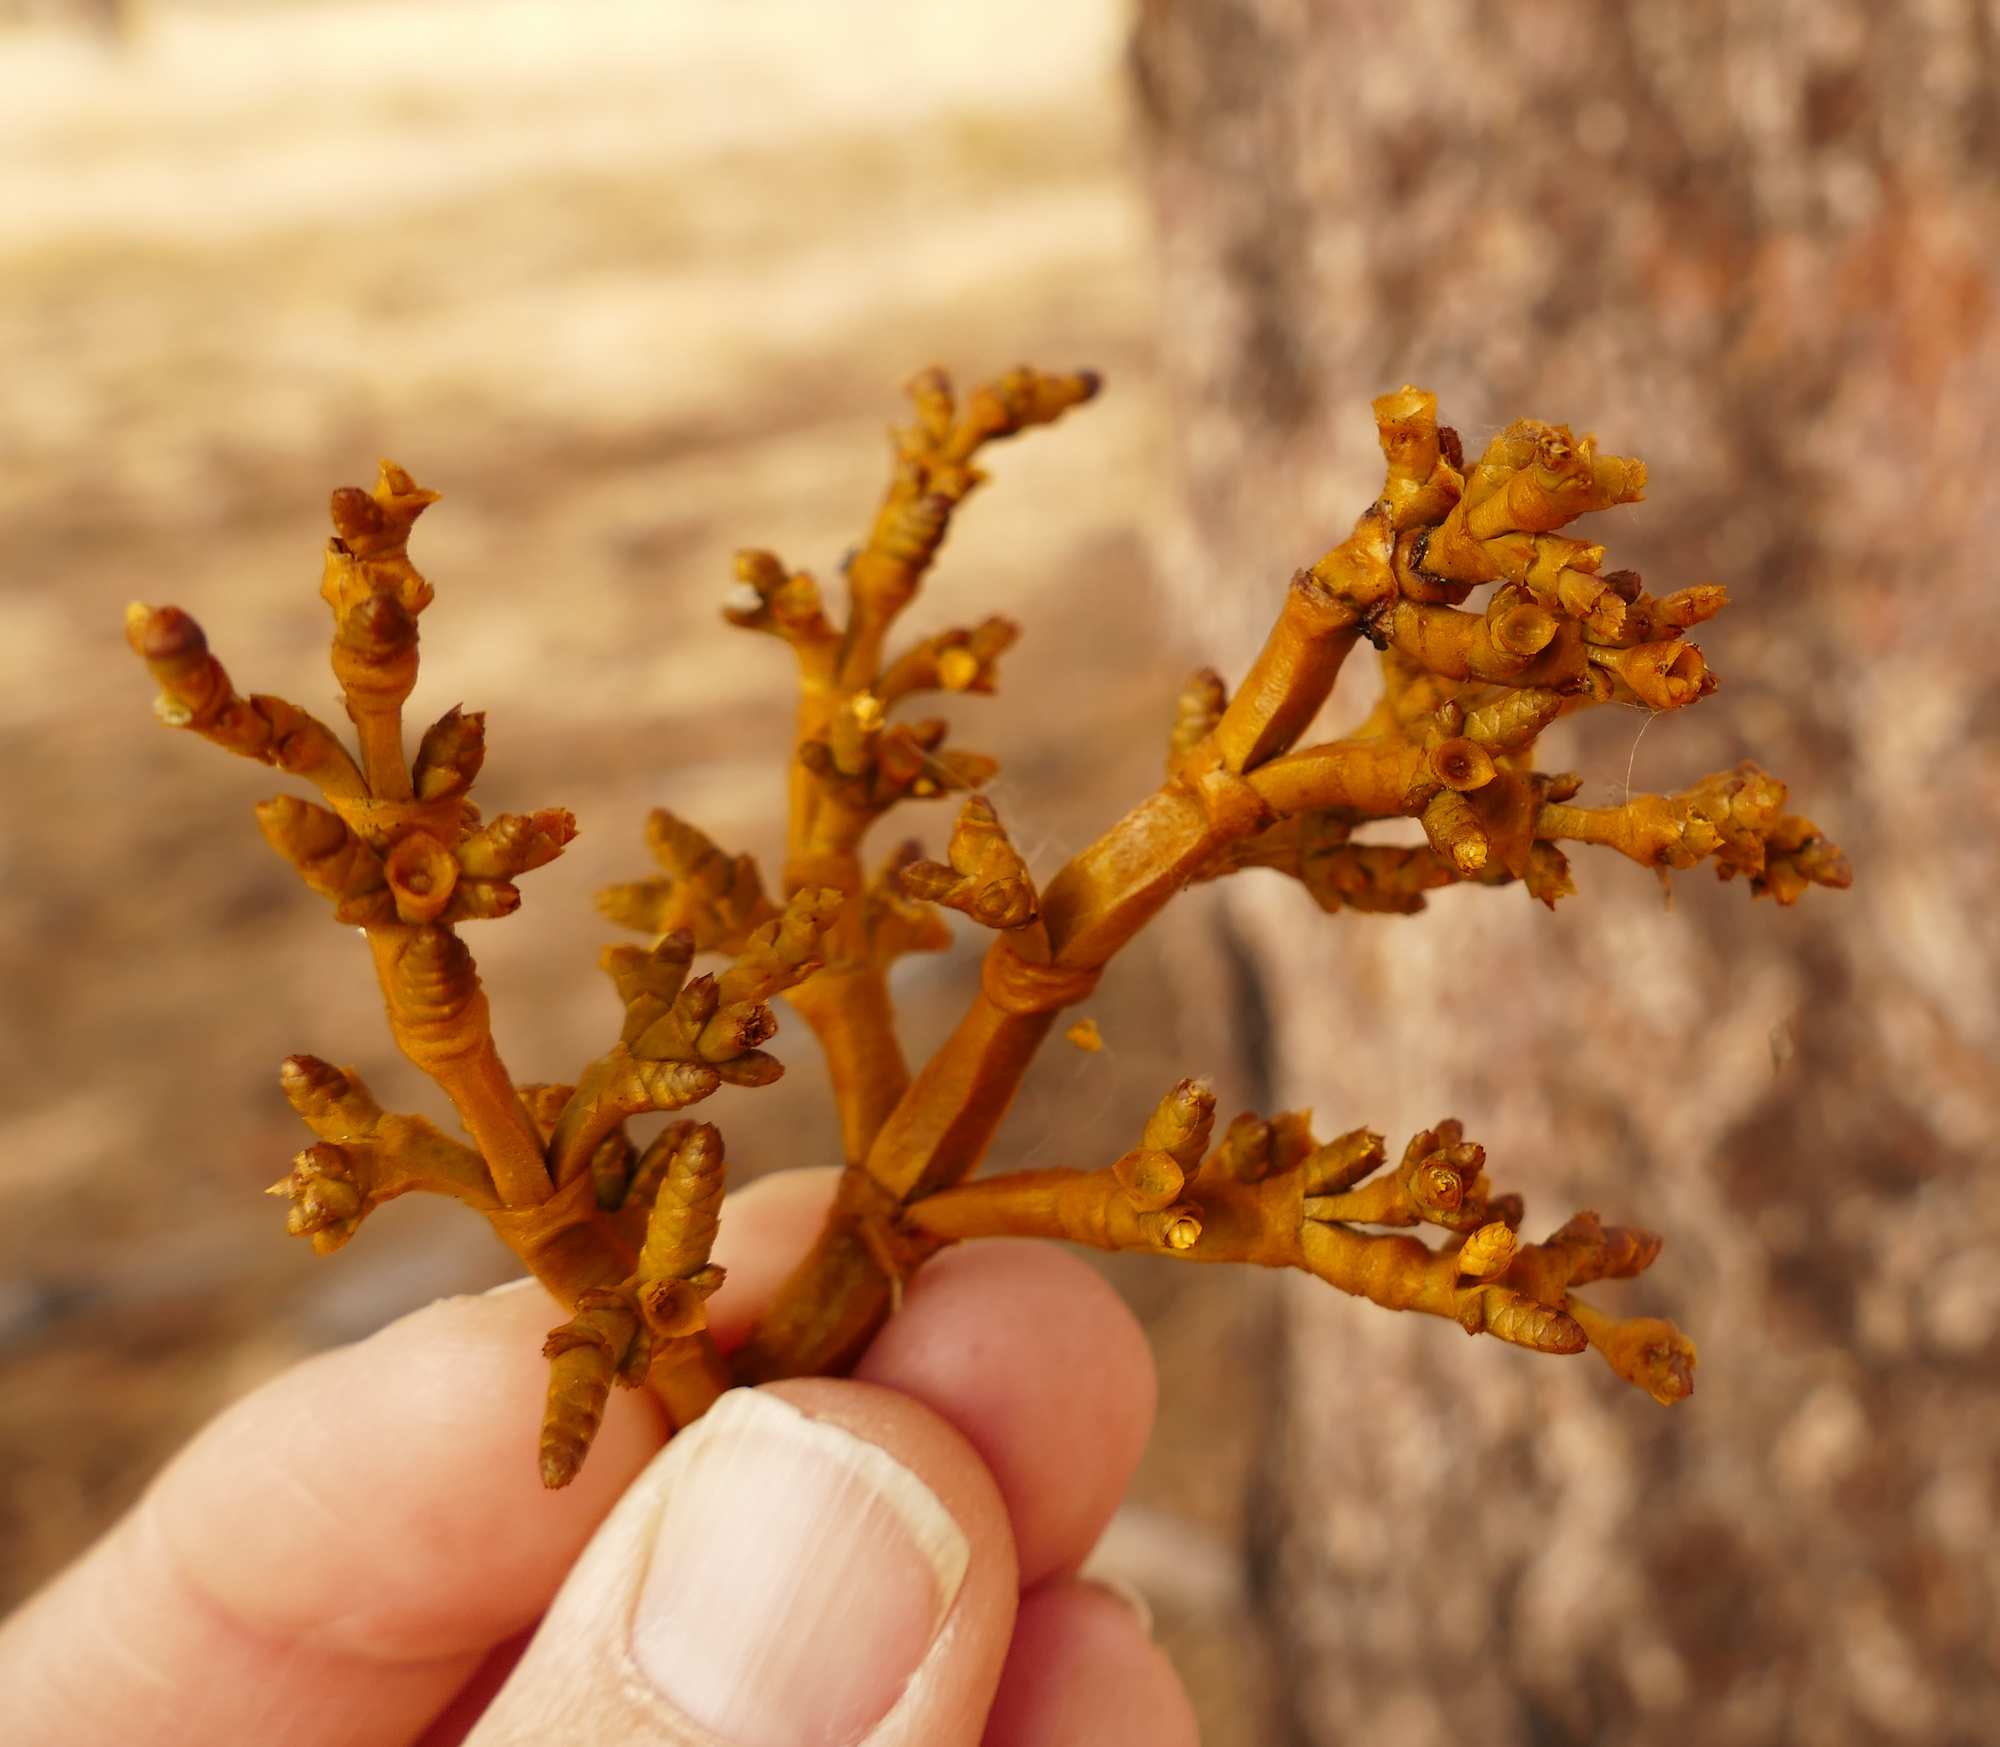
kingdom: Plantae
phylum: Tracheophyta
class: Magnoliopsida
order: Santalales
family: Viscaceae
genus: Arceuthobium
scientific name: Arceuthobium vaginatum
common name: Southwestern dwarf-mistletoe
